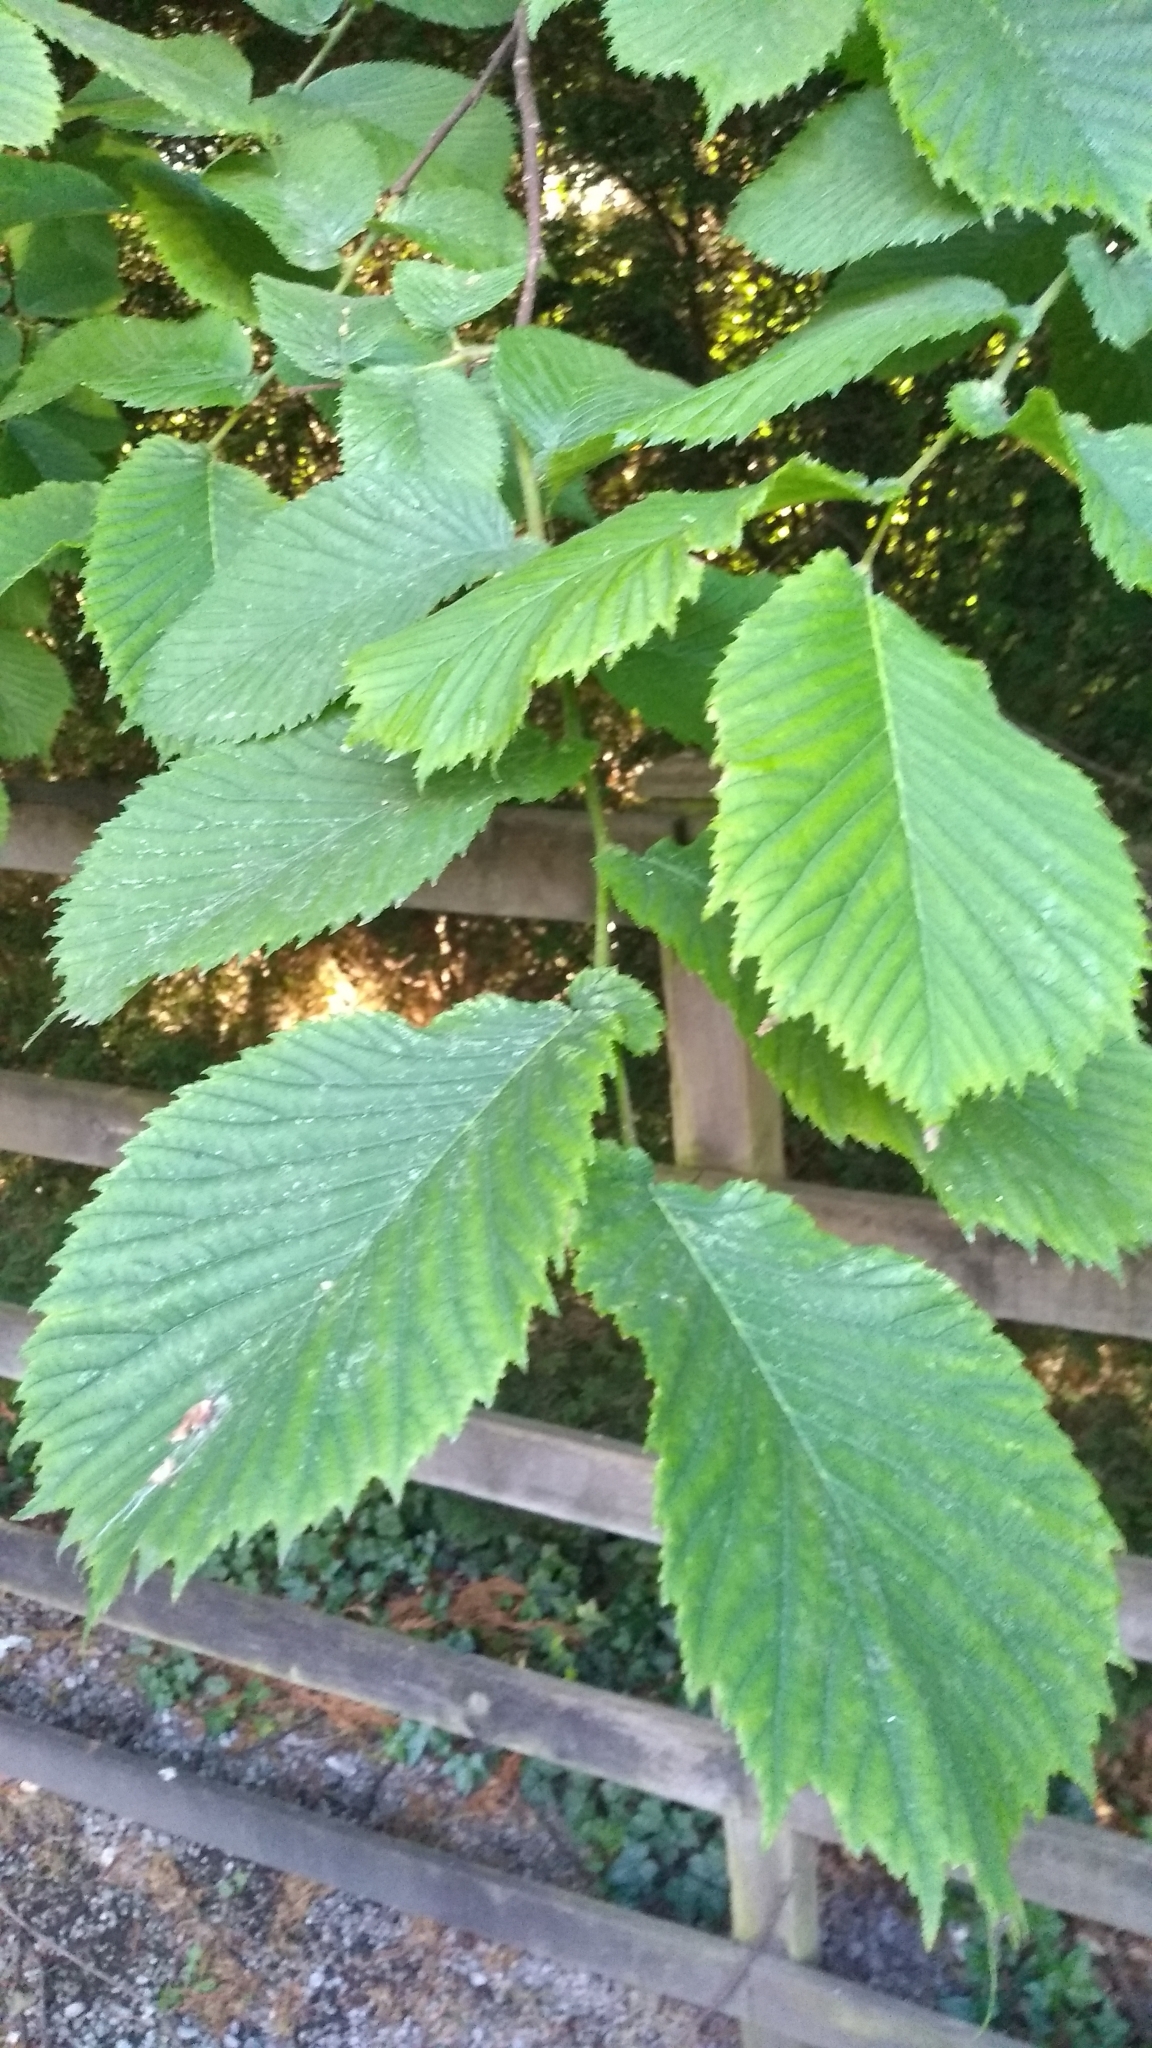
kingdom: Plantae
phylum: Tracheophyta
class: Magnoliopsida
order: Rosales
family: Ulmaceae
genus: Ulmus
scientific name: Ulmus glabra
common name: Wych elm
